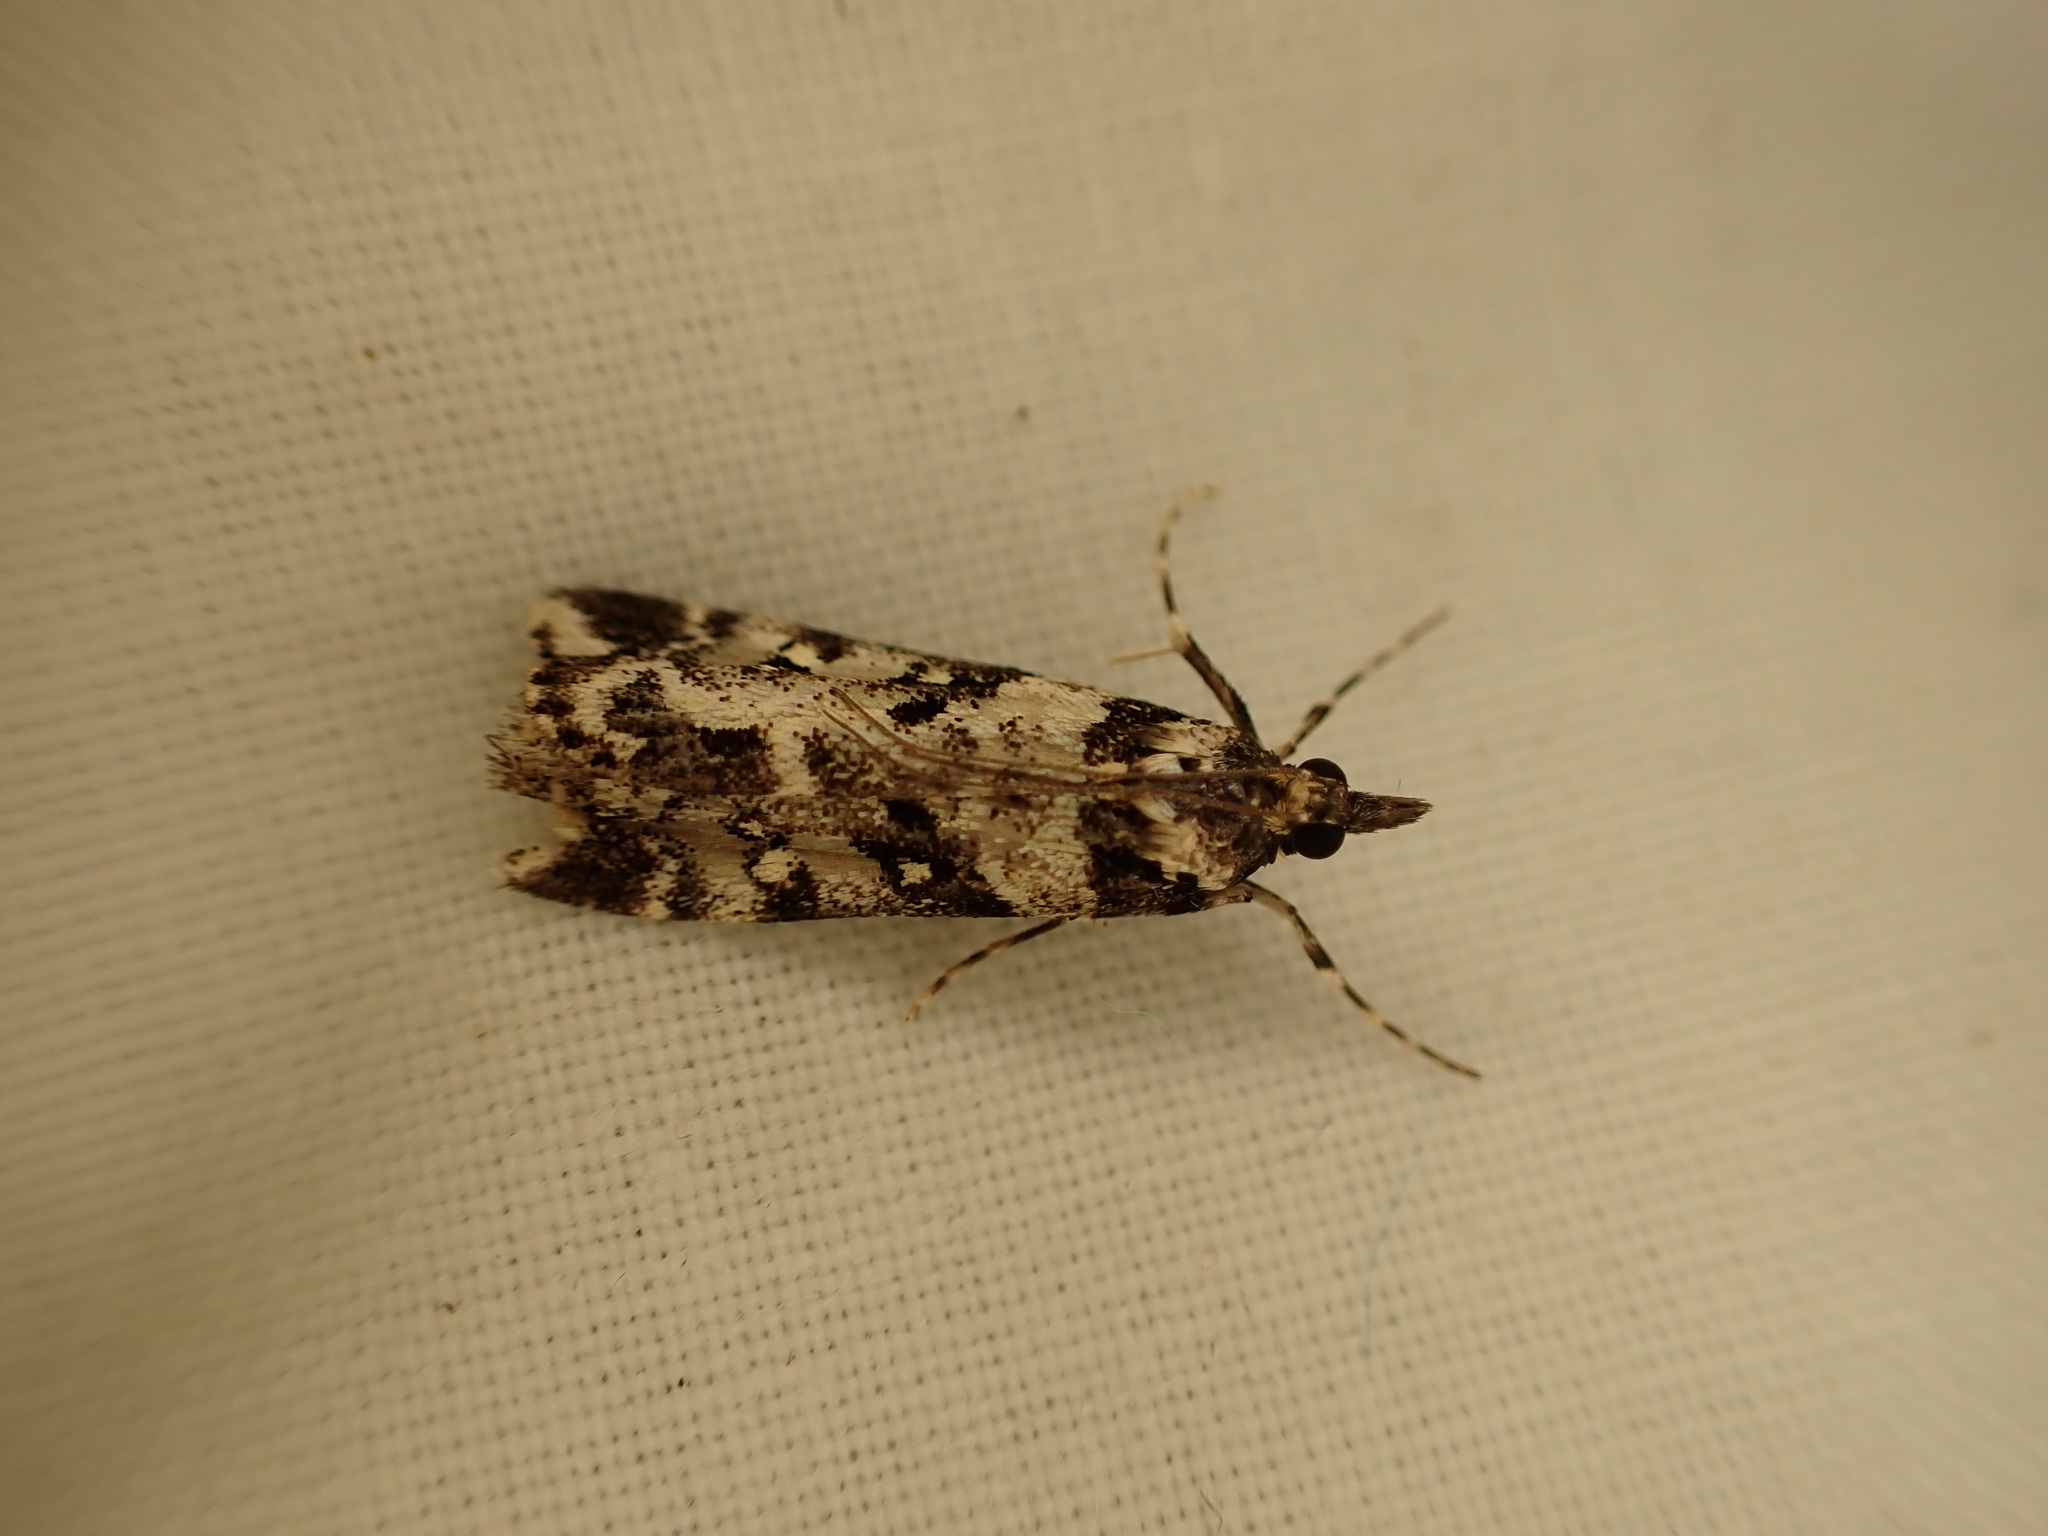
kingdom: Animalia
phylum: Arthropoda
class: Insecta
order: Lepidoptera
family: Crambidae
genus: Eudonia
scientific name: Eudonia diphtheralis
